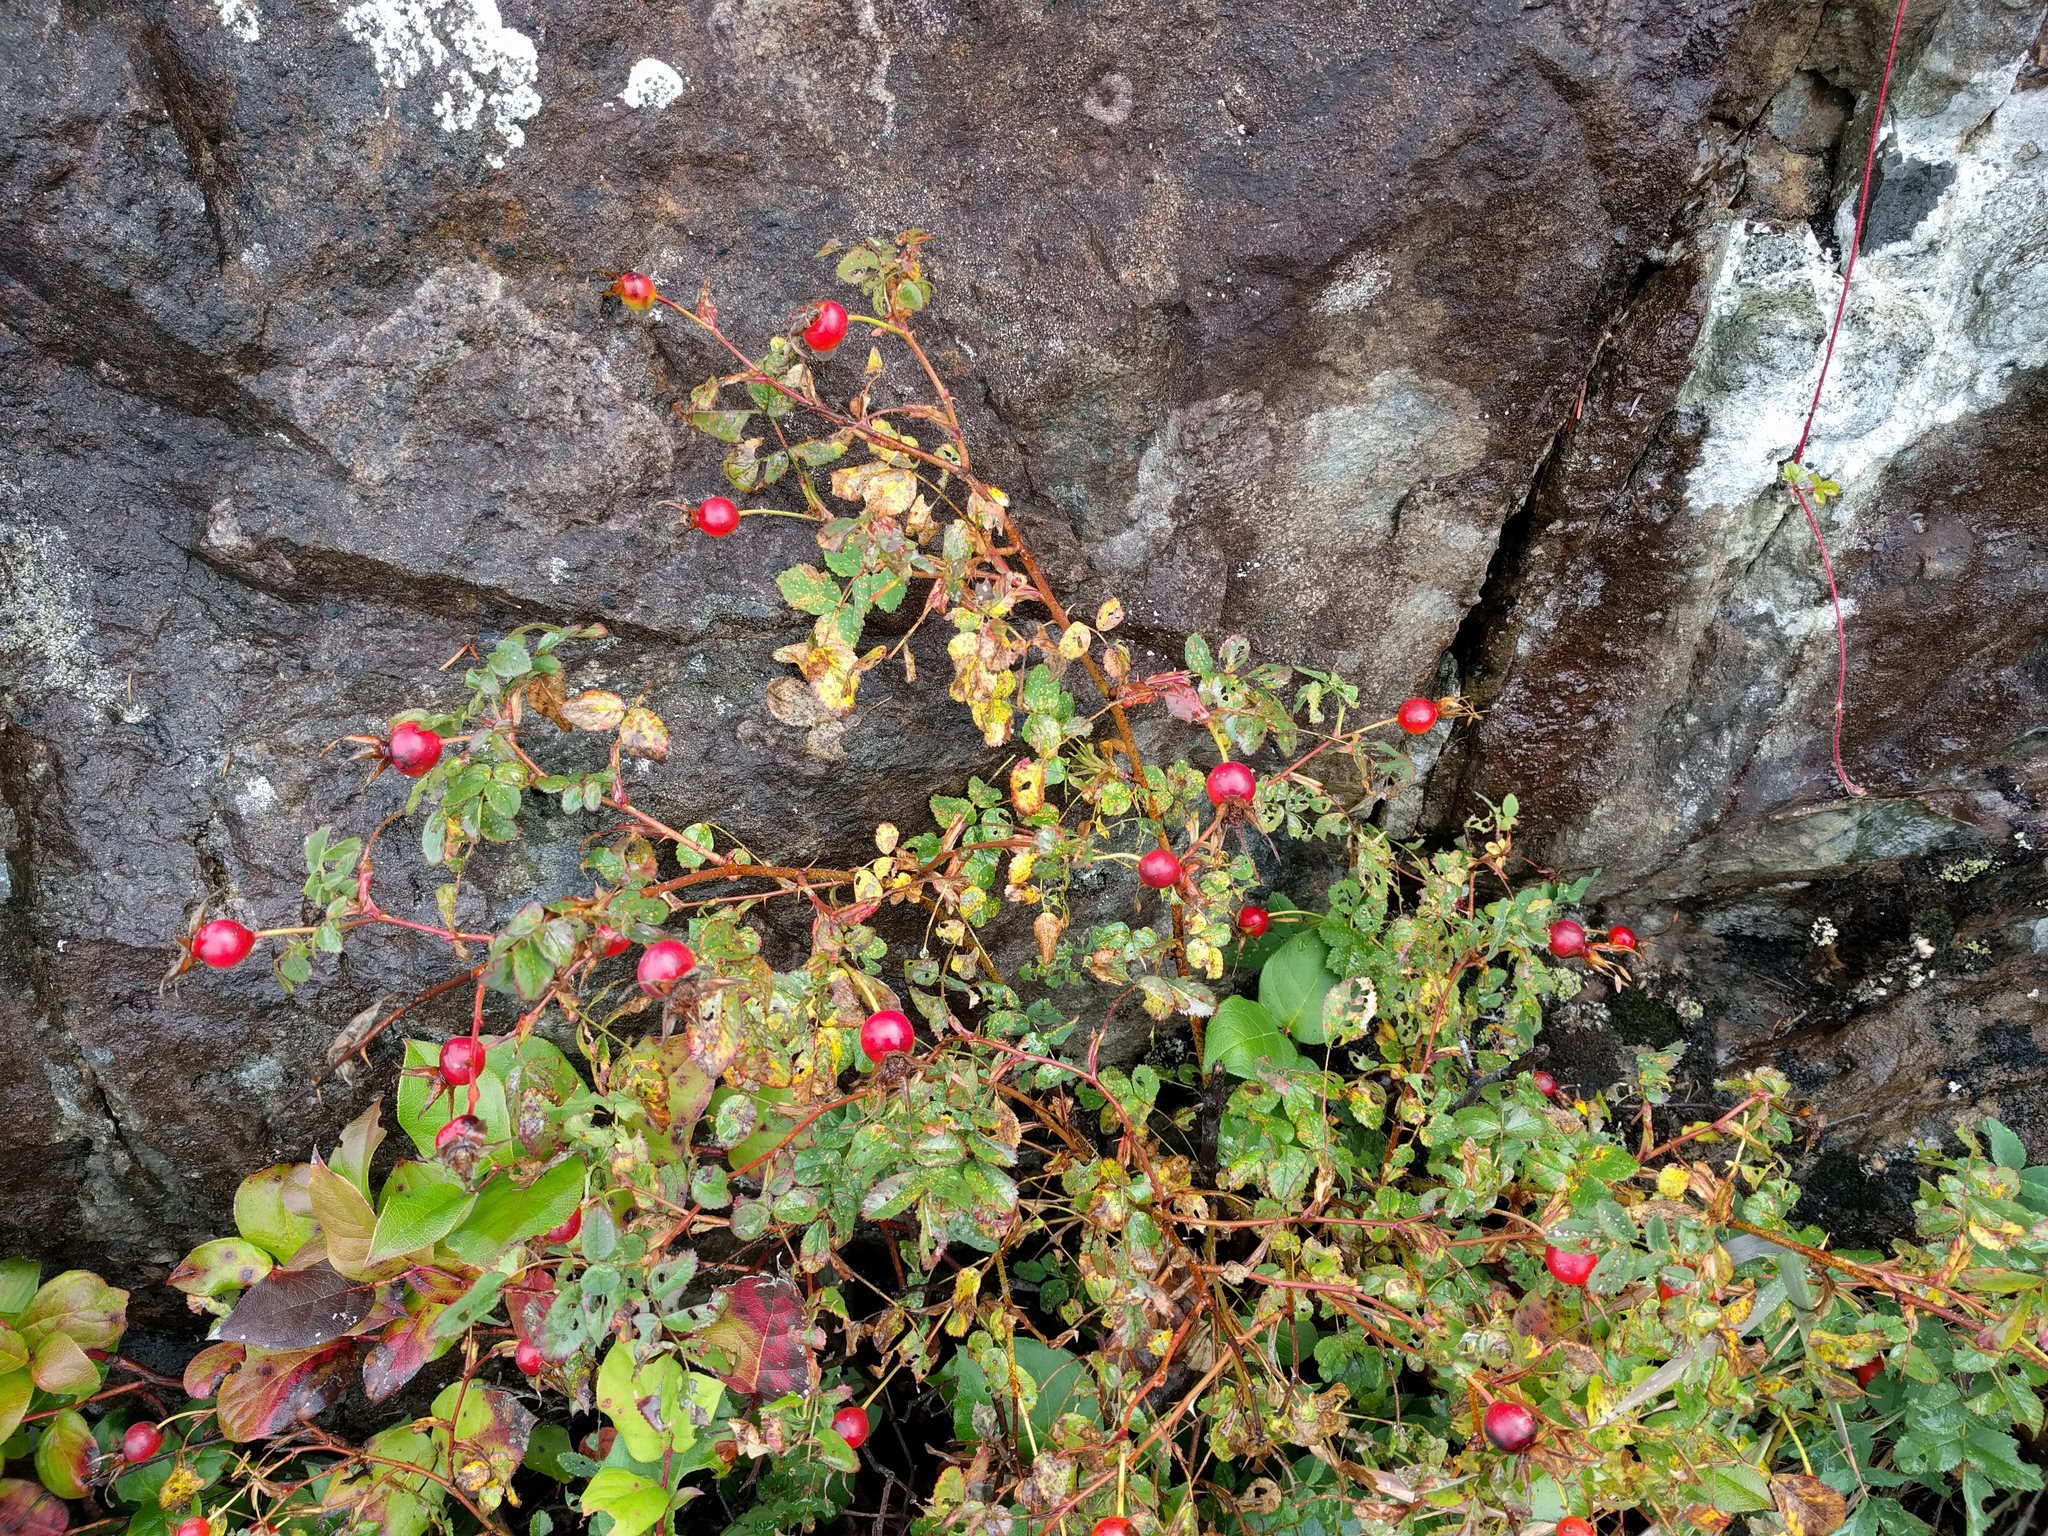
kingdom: Plantae
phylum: Tracheophyta
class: Magnoliopsida
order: Rosales
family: Rosaceae
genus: Rosa
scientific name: Rosa nutkana
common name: Nootka rose
